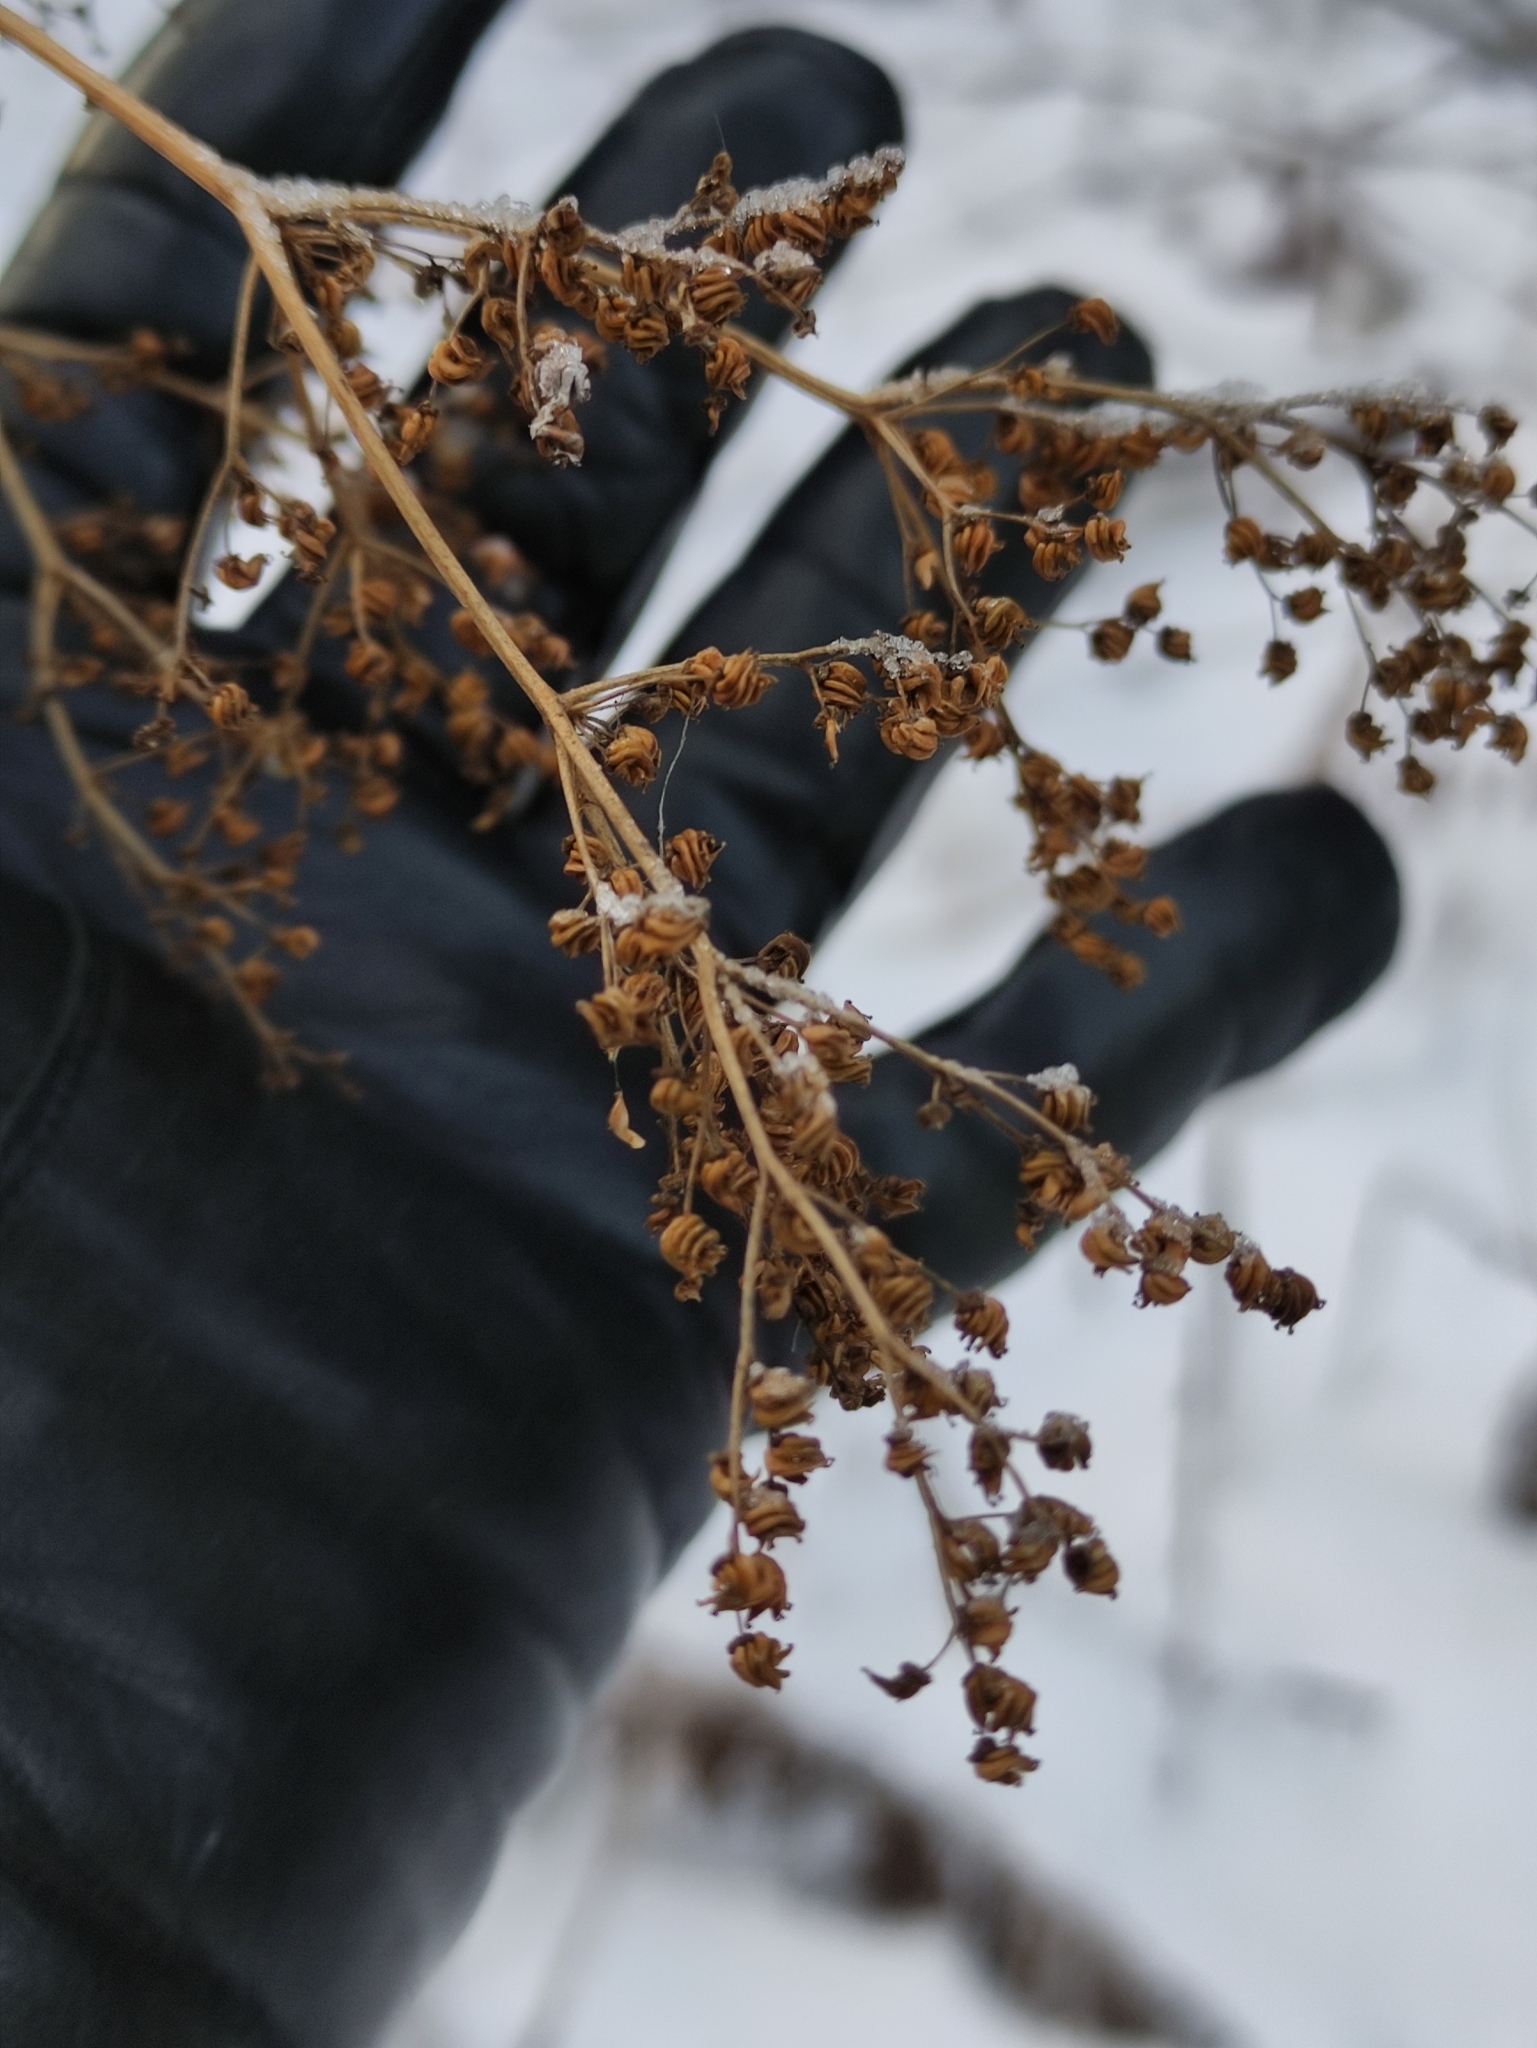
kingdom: Plantae
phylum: Tracheophyta
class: Magnoliopsida
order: Rosales
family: Rosaceae
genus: Filipendula
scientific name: Filipendula ulmaria
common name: Meadowsweet
